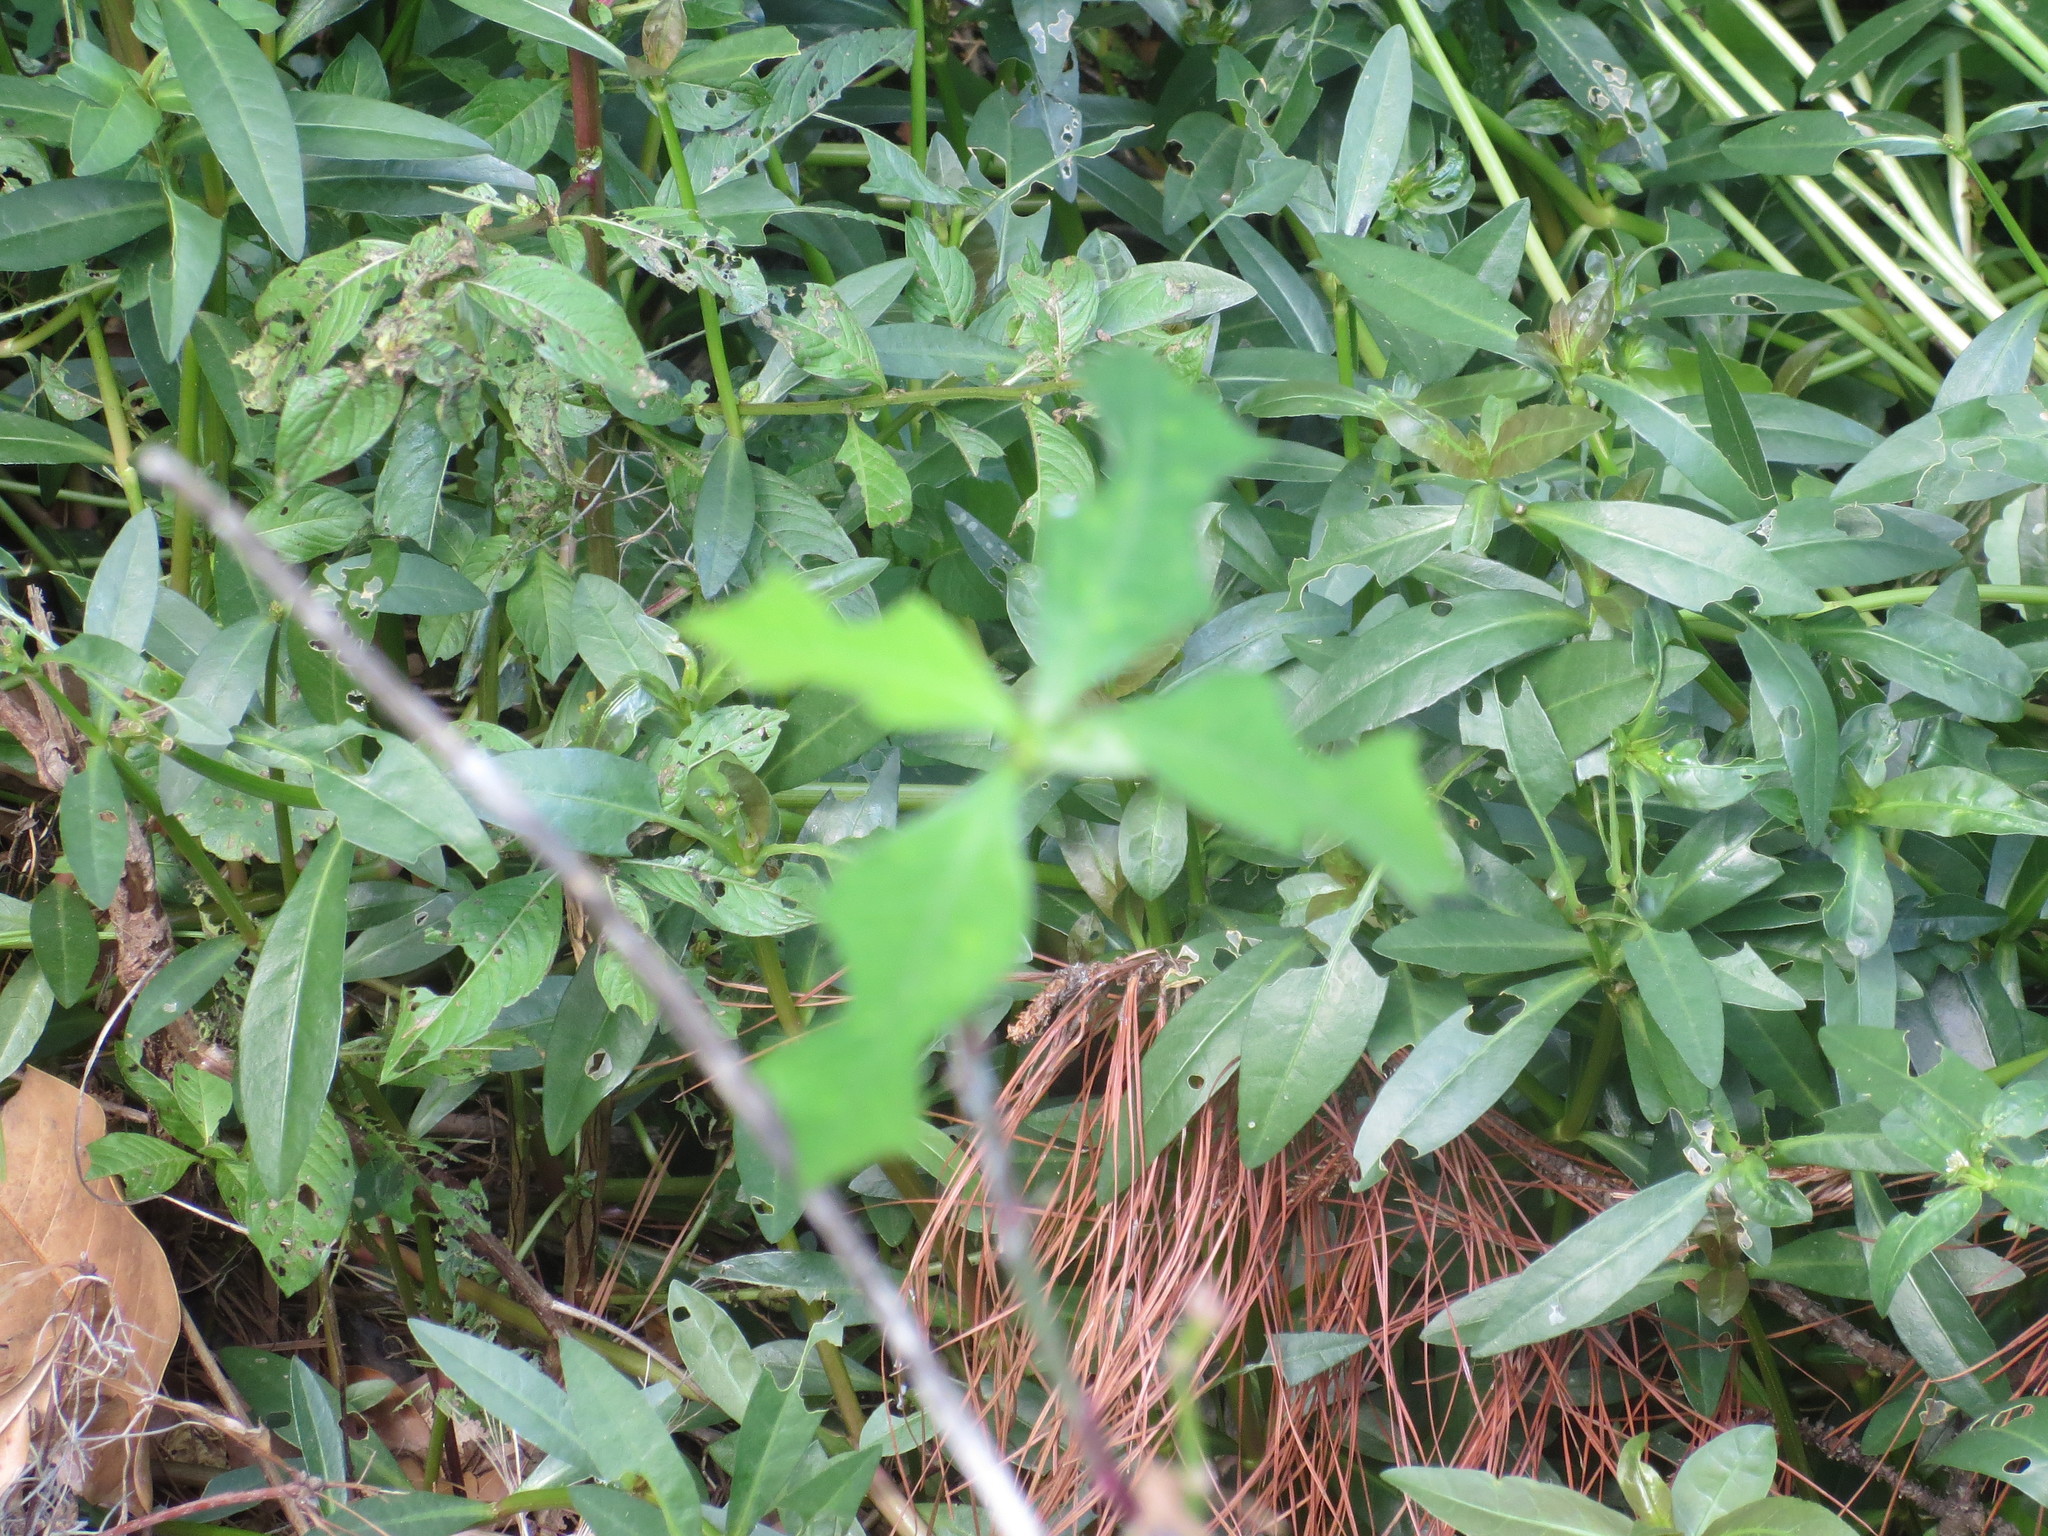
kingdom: Plantae
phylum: Tracheophyta
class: Magnoliopsida
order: Malpighiales
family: Euphorbiaceae
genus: Euphorbia
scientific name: Euphorbia heterophylla
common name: Mexican fireplant
